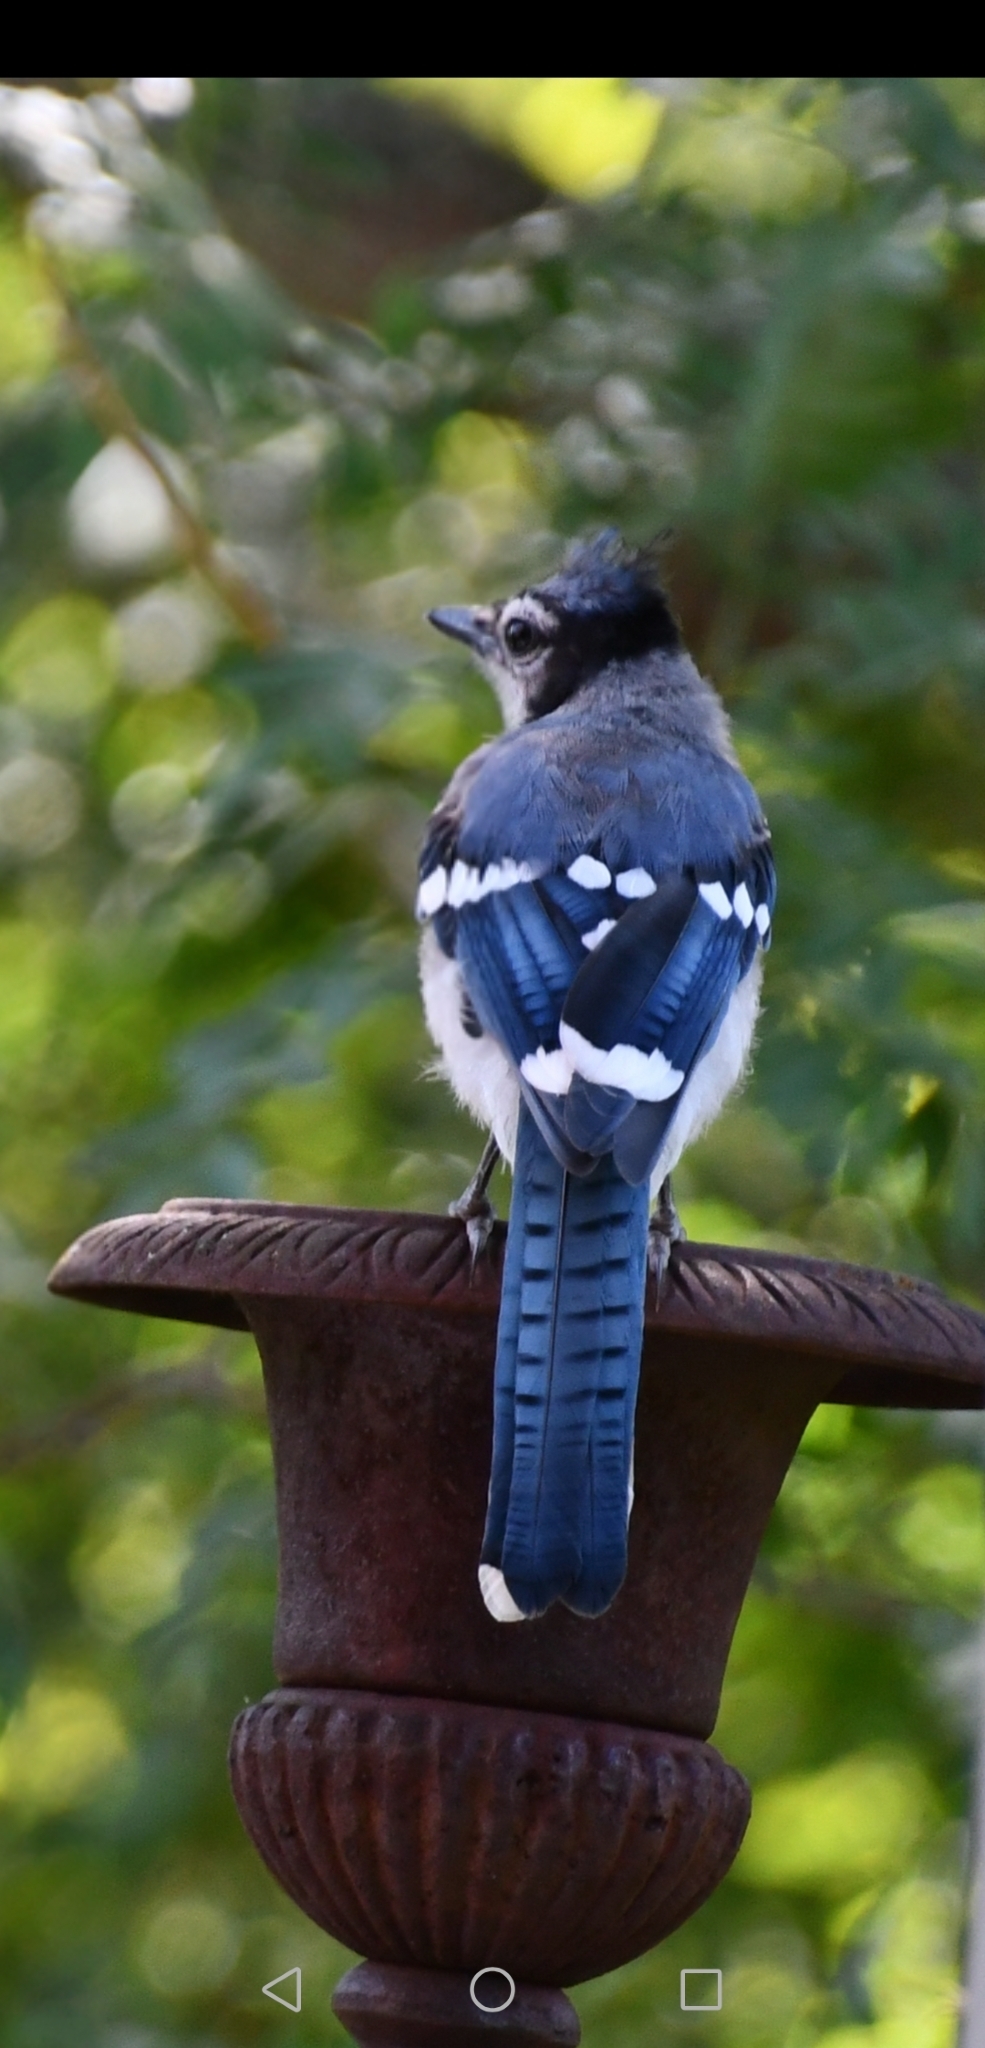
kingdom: Animalia
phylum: Chordata
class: Aves
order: Passeriformes
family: Corvidae
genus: Cyanocitta
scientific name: Cyanocitta cristata
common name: Blue jay
